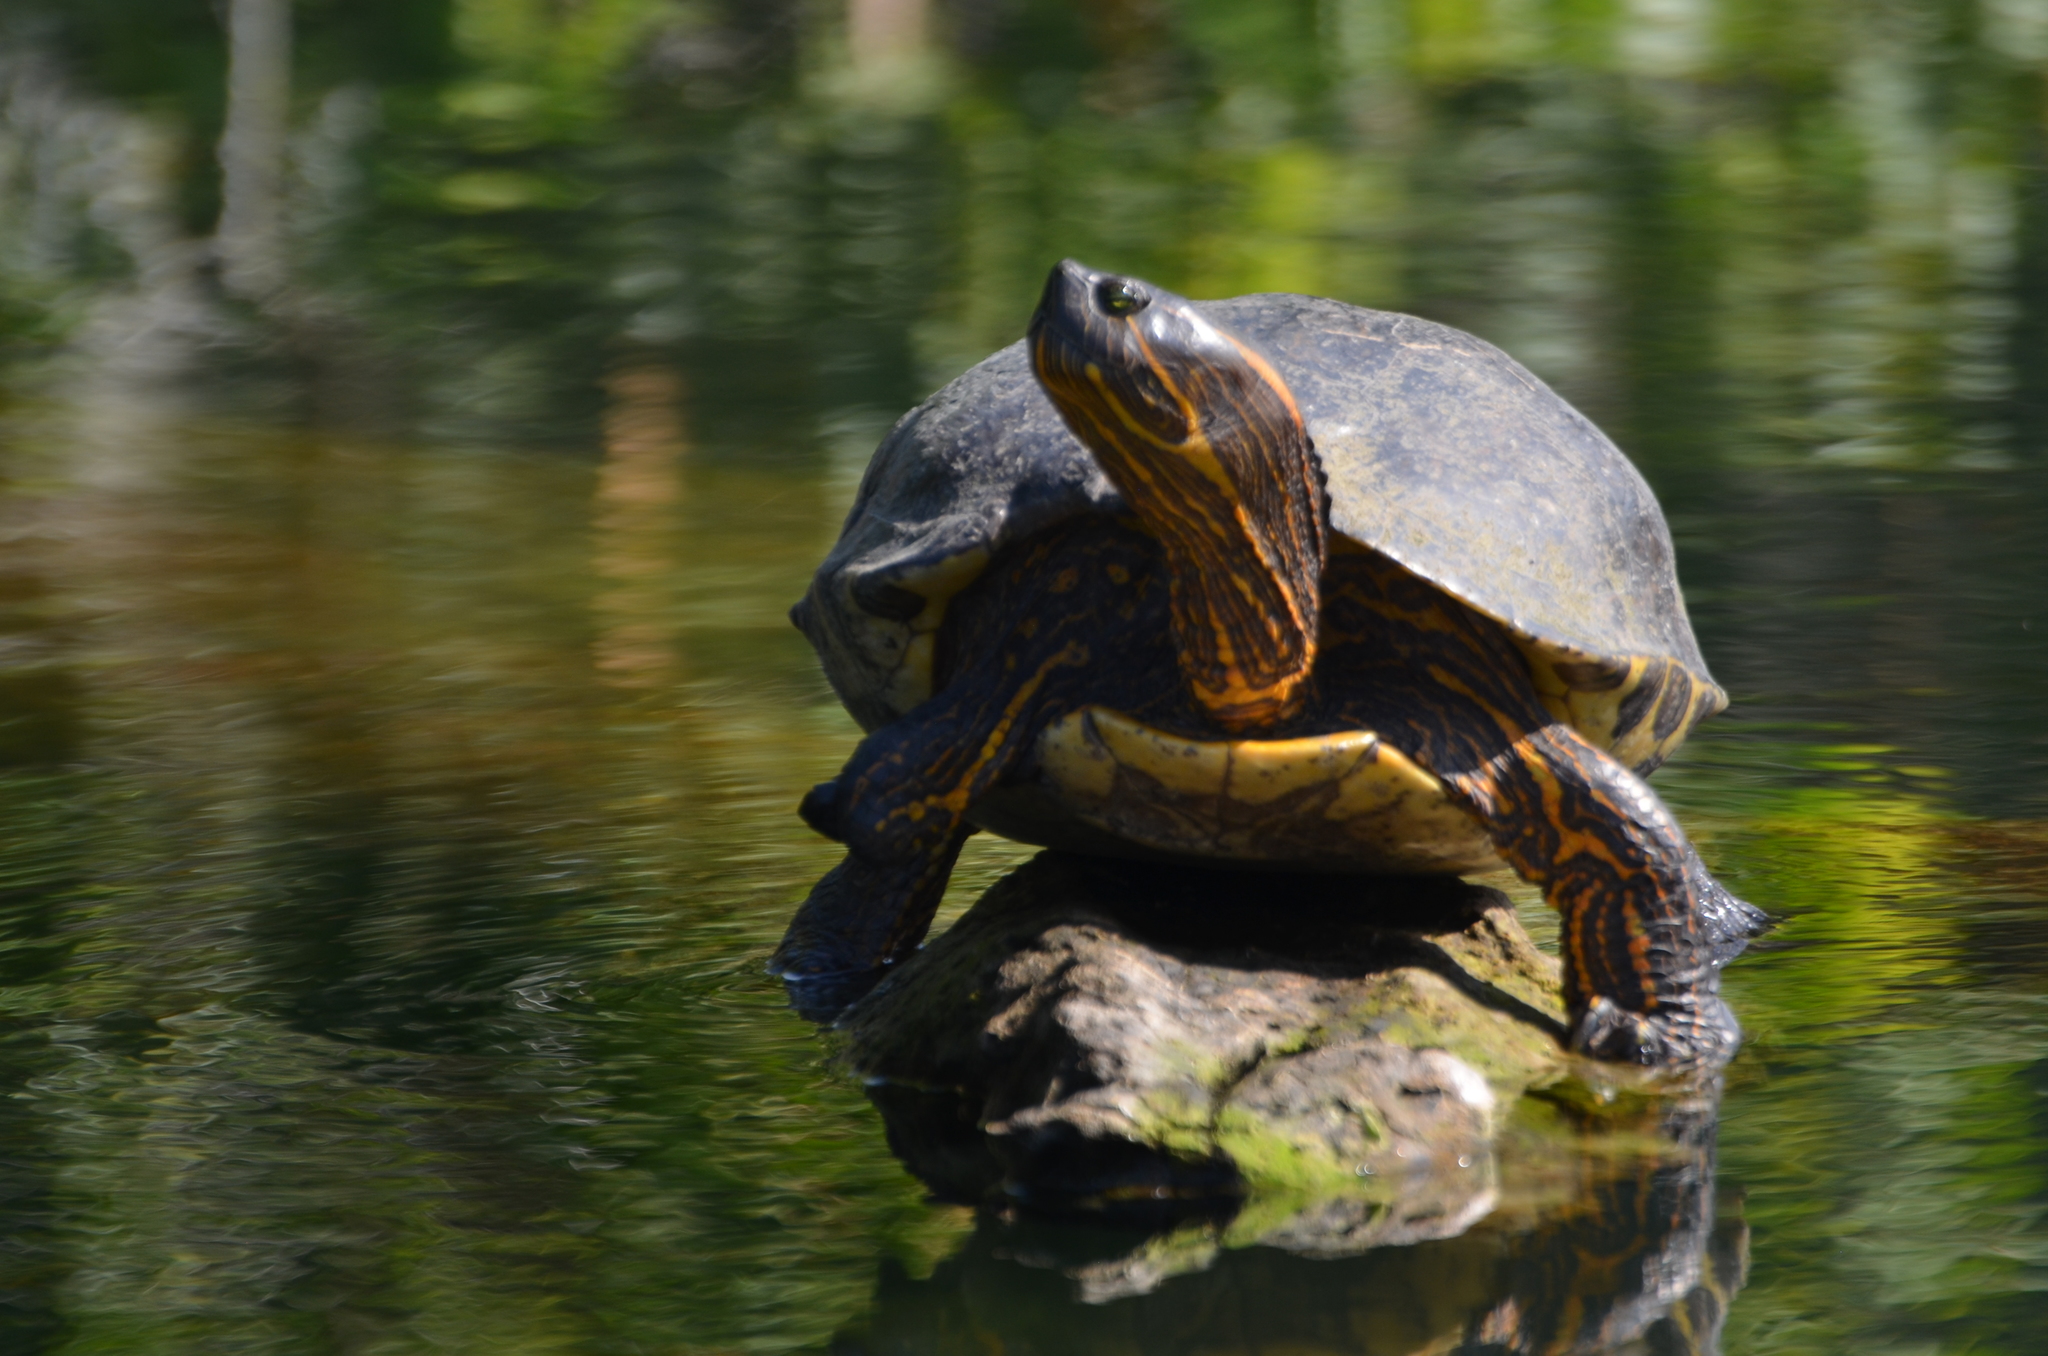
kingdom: Animalia
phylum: Chordata
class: Testudines
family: Emydidae
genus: Trachemys
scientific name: Trachemys ornata
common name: Ornate slider
